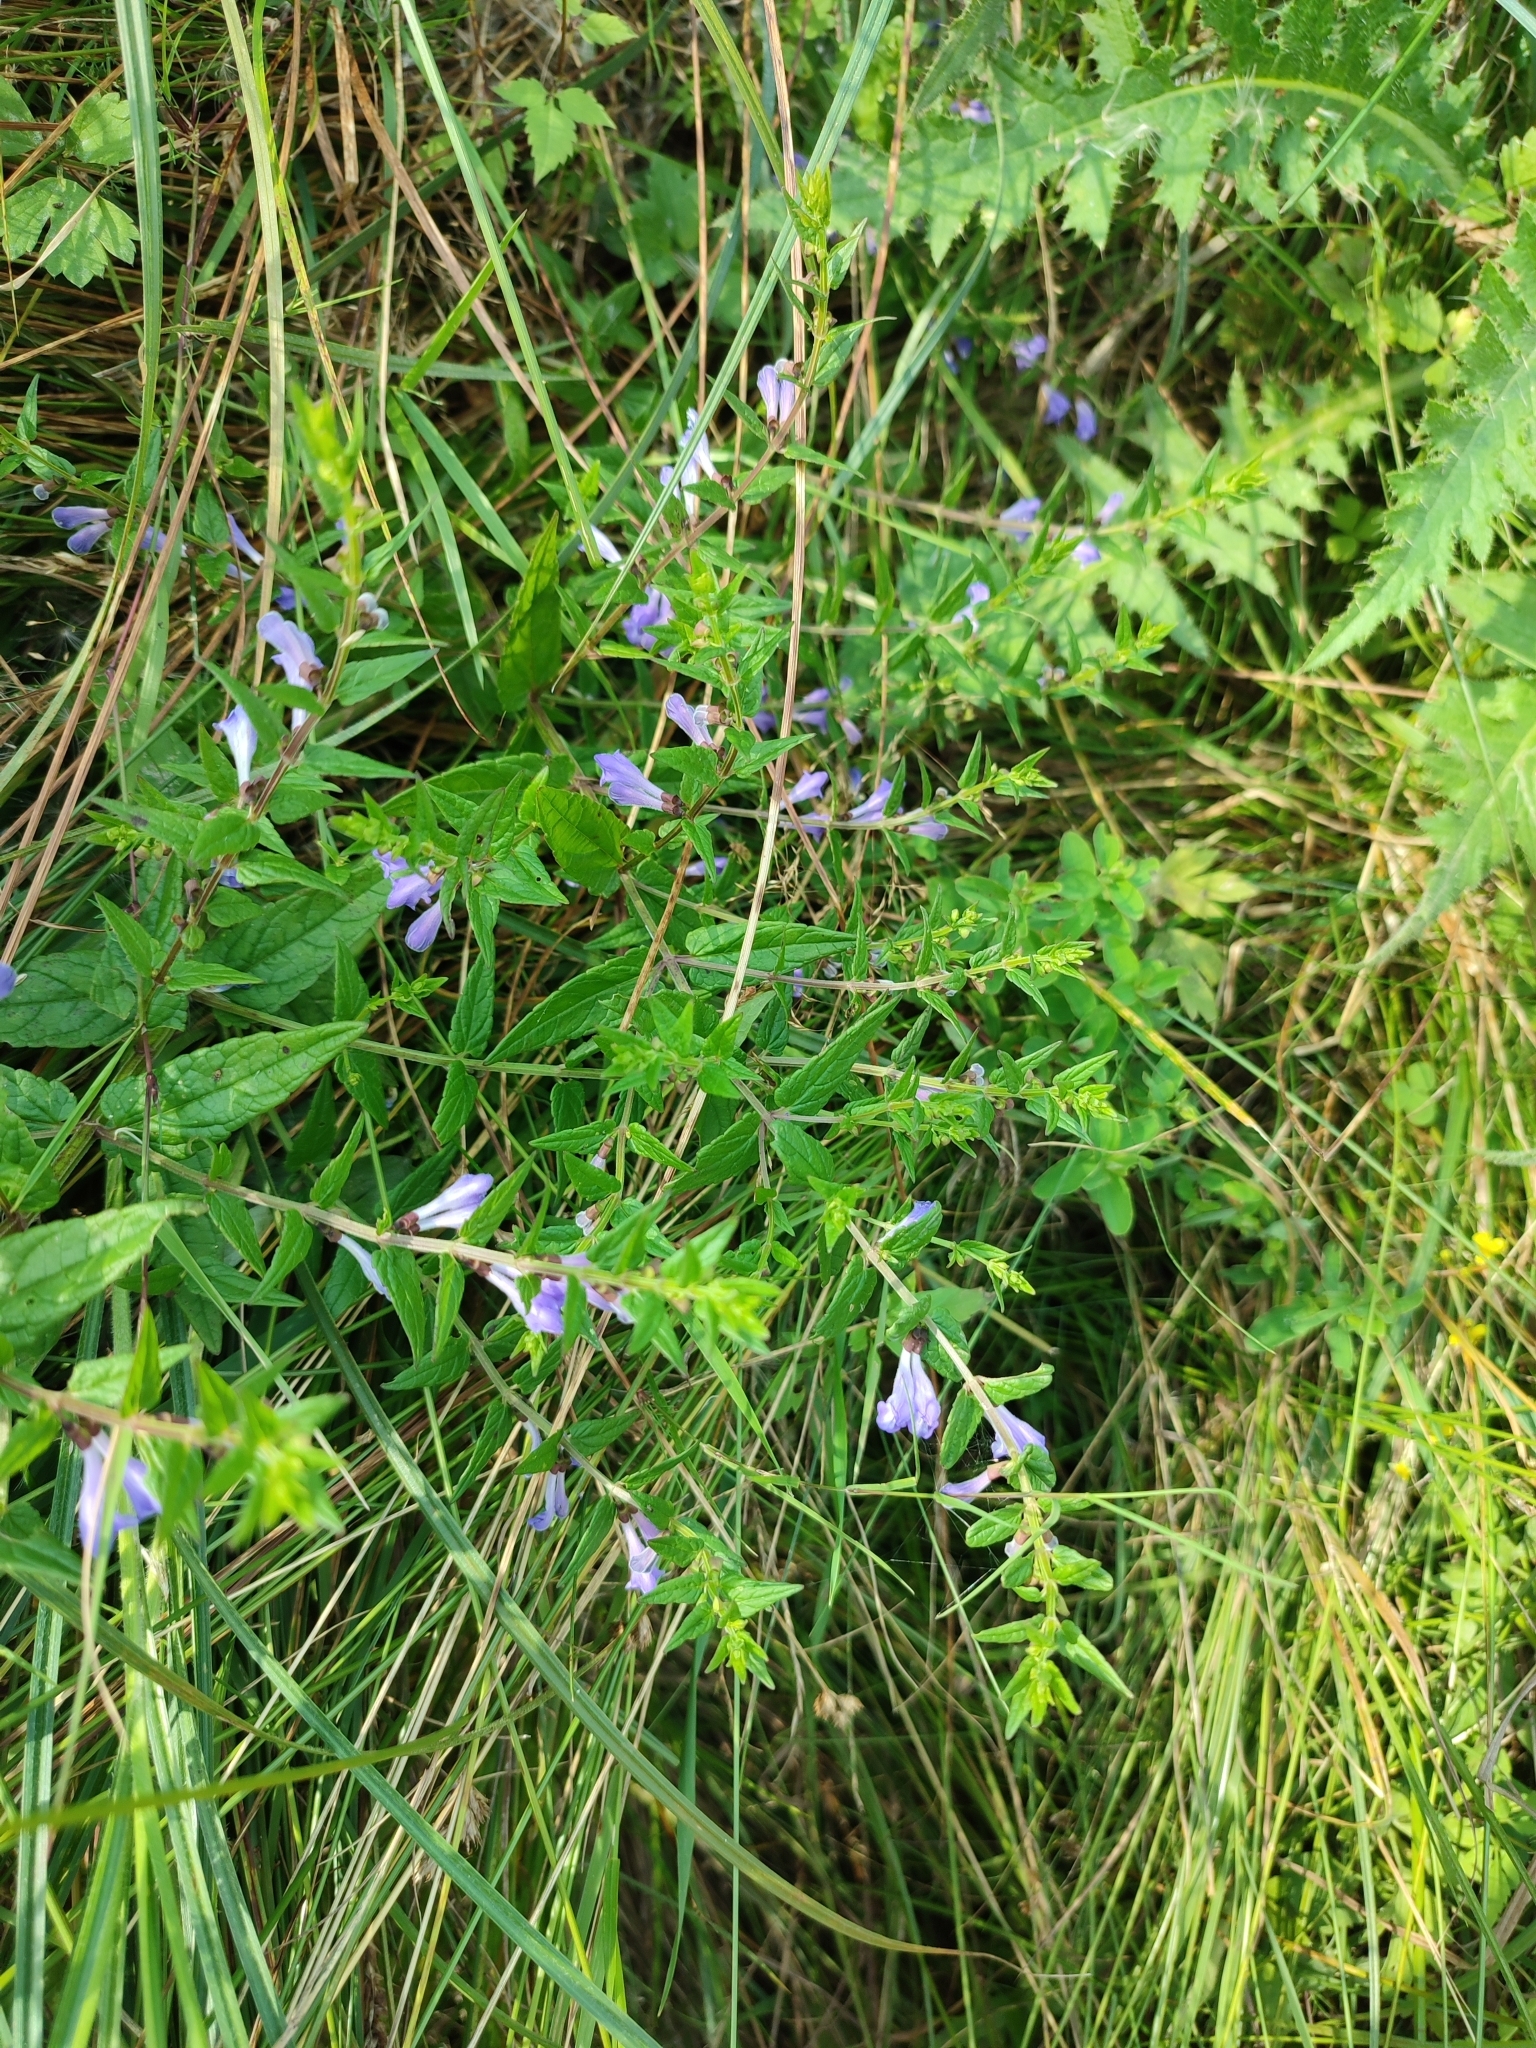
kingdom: Plantae
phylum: Tracheophyta
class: Magnoliopsida
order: Lamiales
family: Lamiaceae
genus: Scutellaria
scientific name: Scutellaria galericulata
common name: Skullcap
